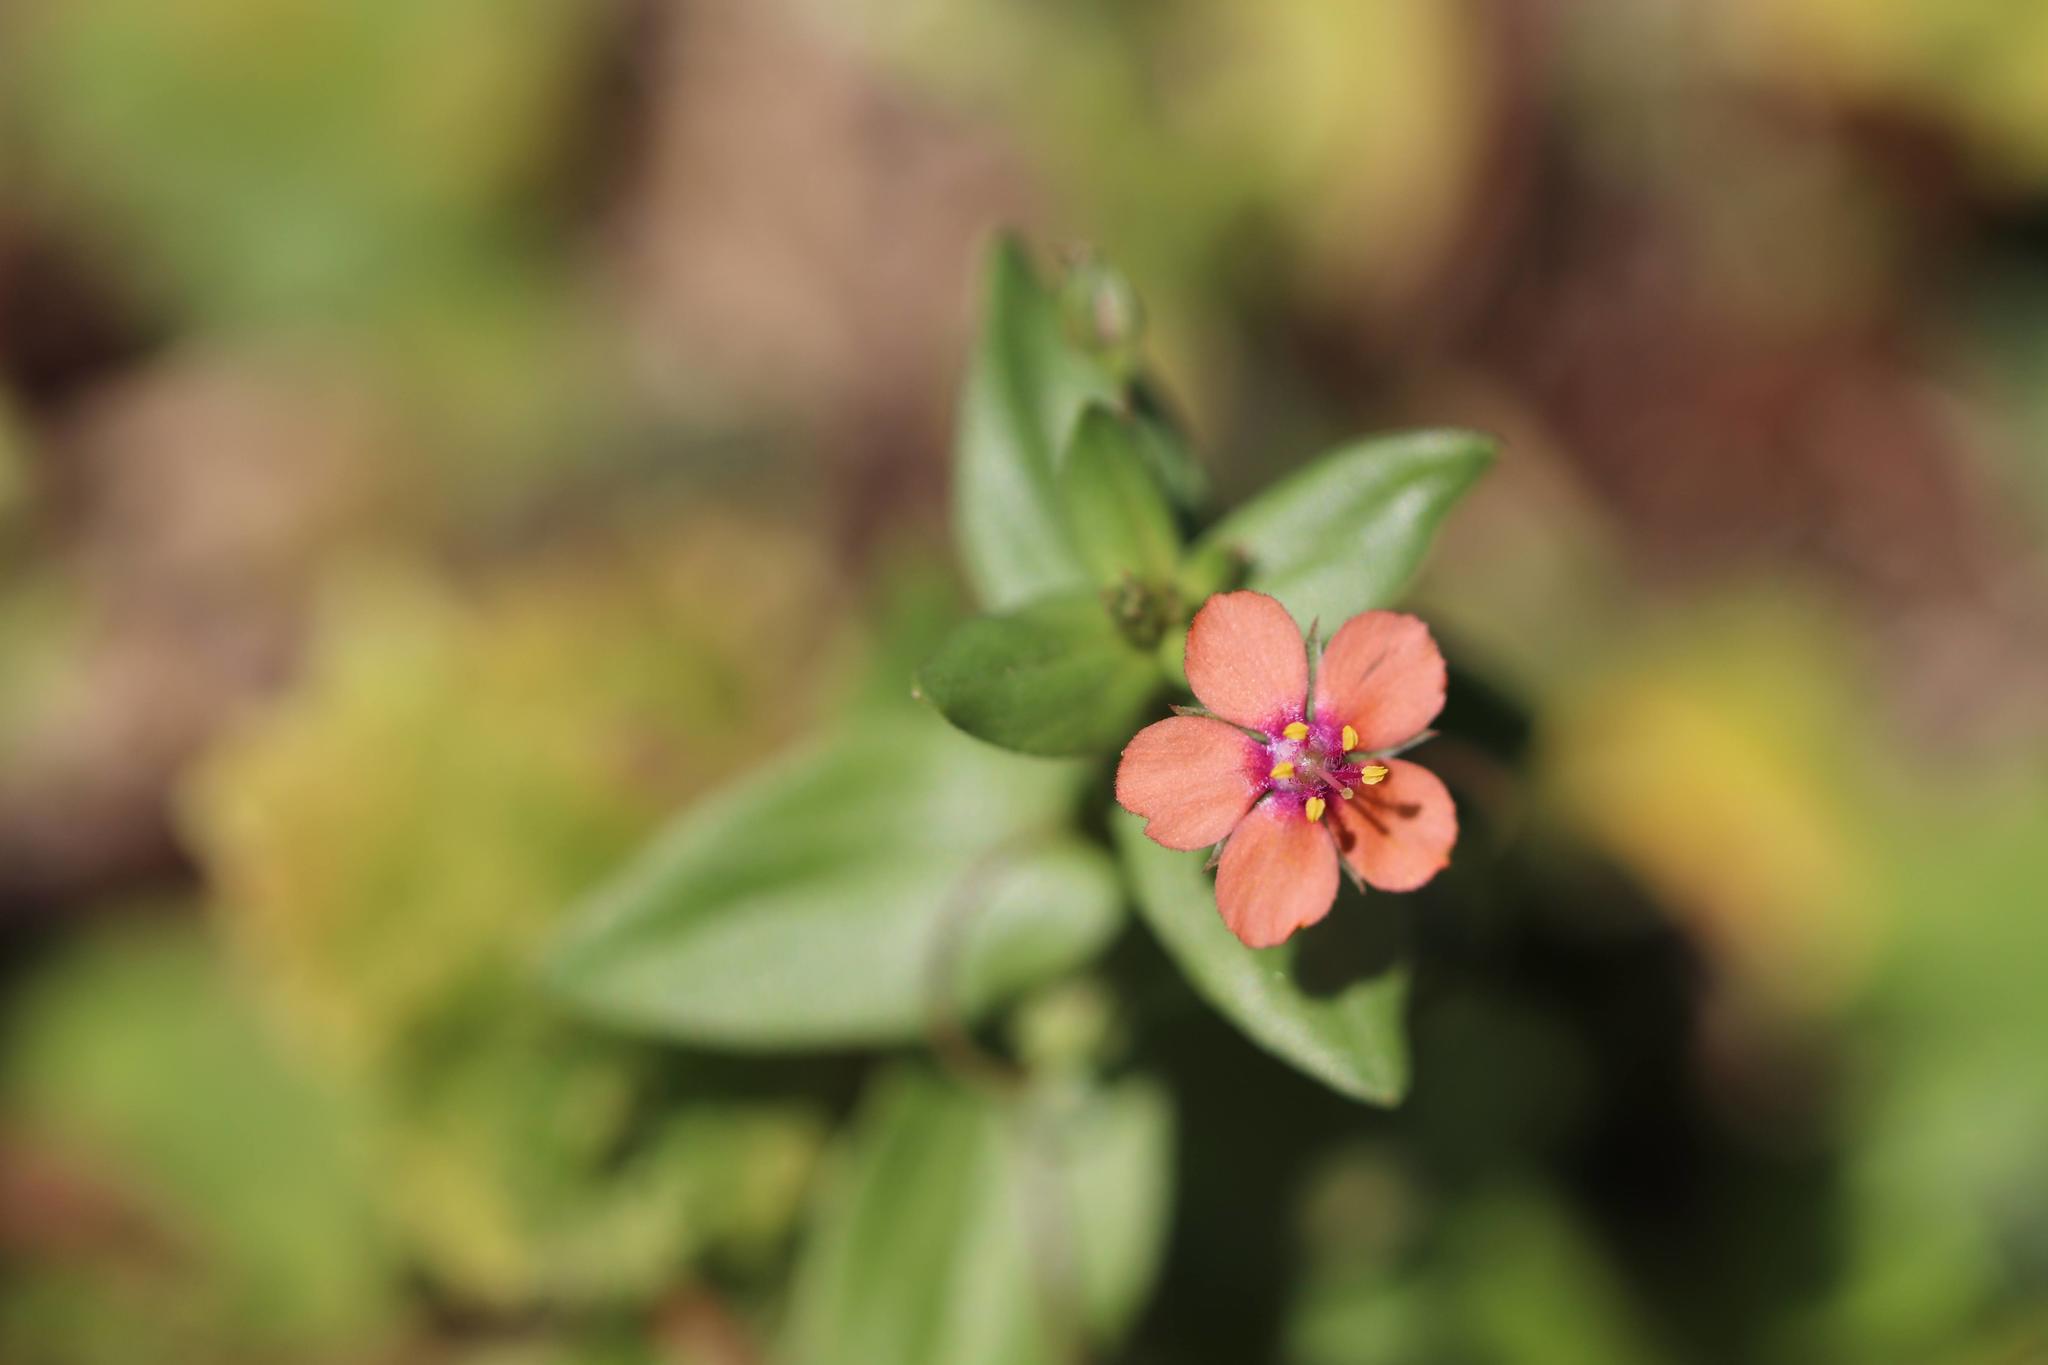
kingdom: Plantae
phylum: Tracheophyta
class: Magnoliopsida
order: Ericales
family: Primulaceae
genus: Lysimachia
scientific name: Lysimachia arvensis
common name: Scarlet pimpernel
